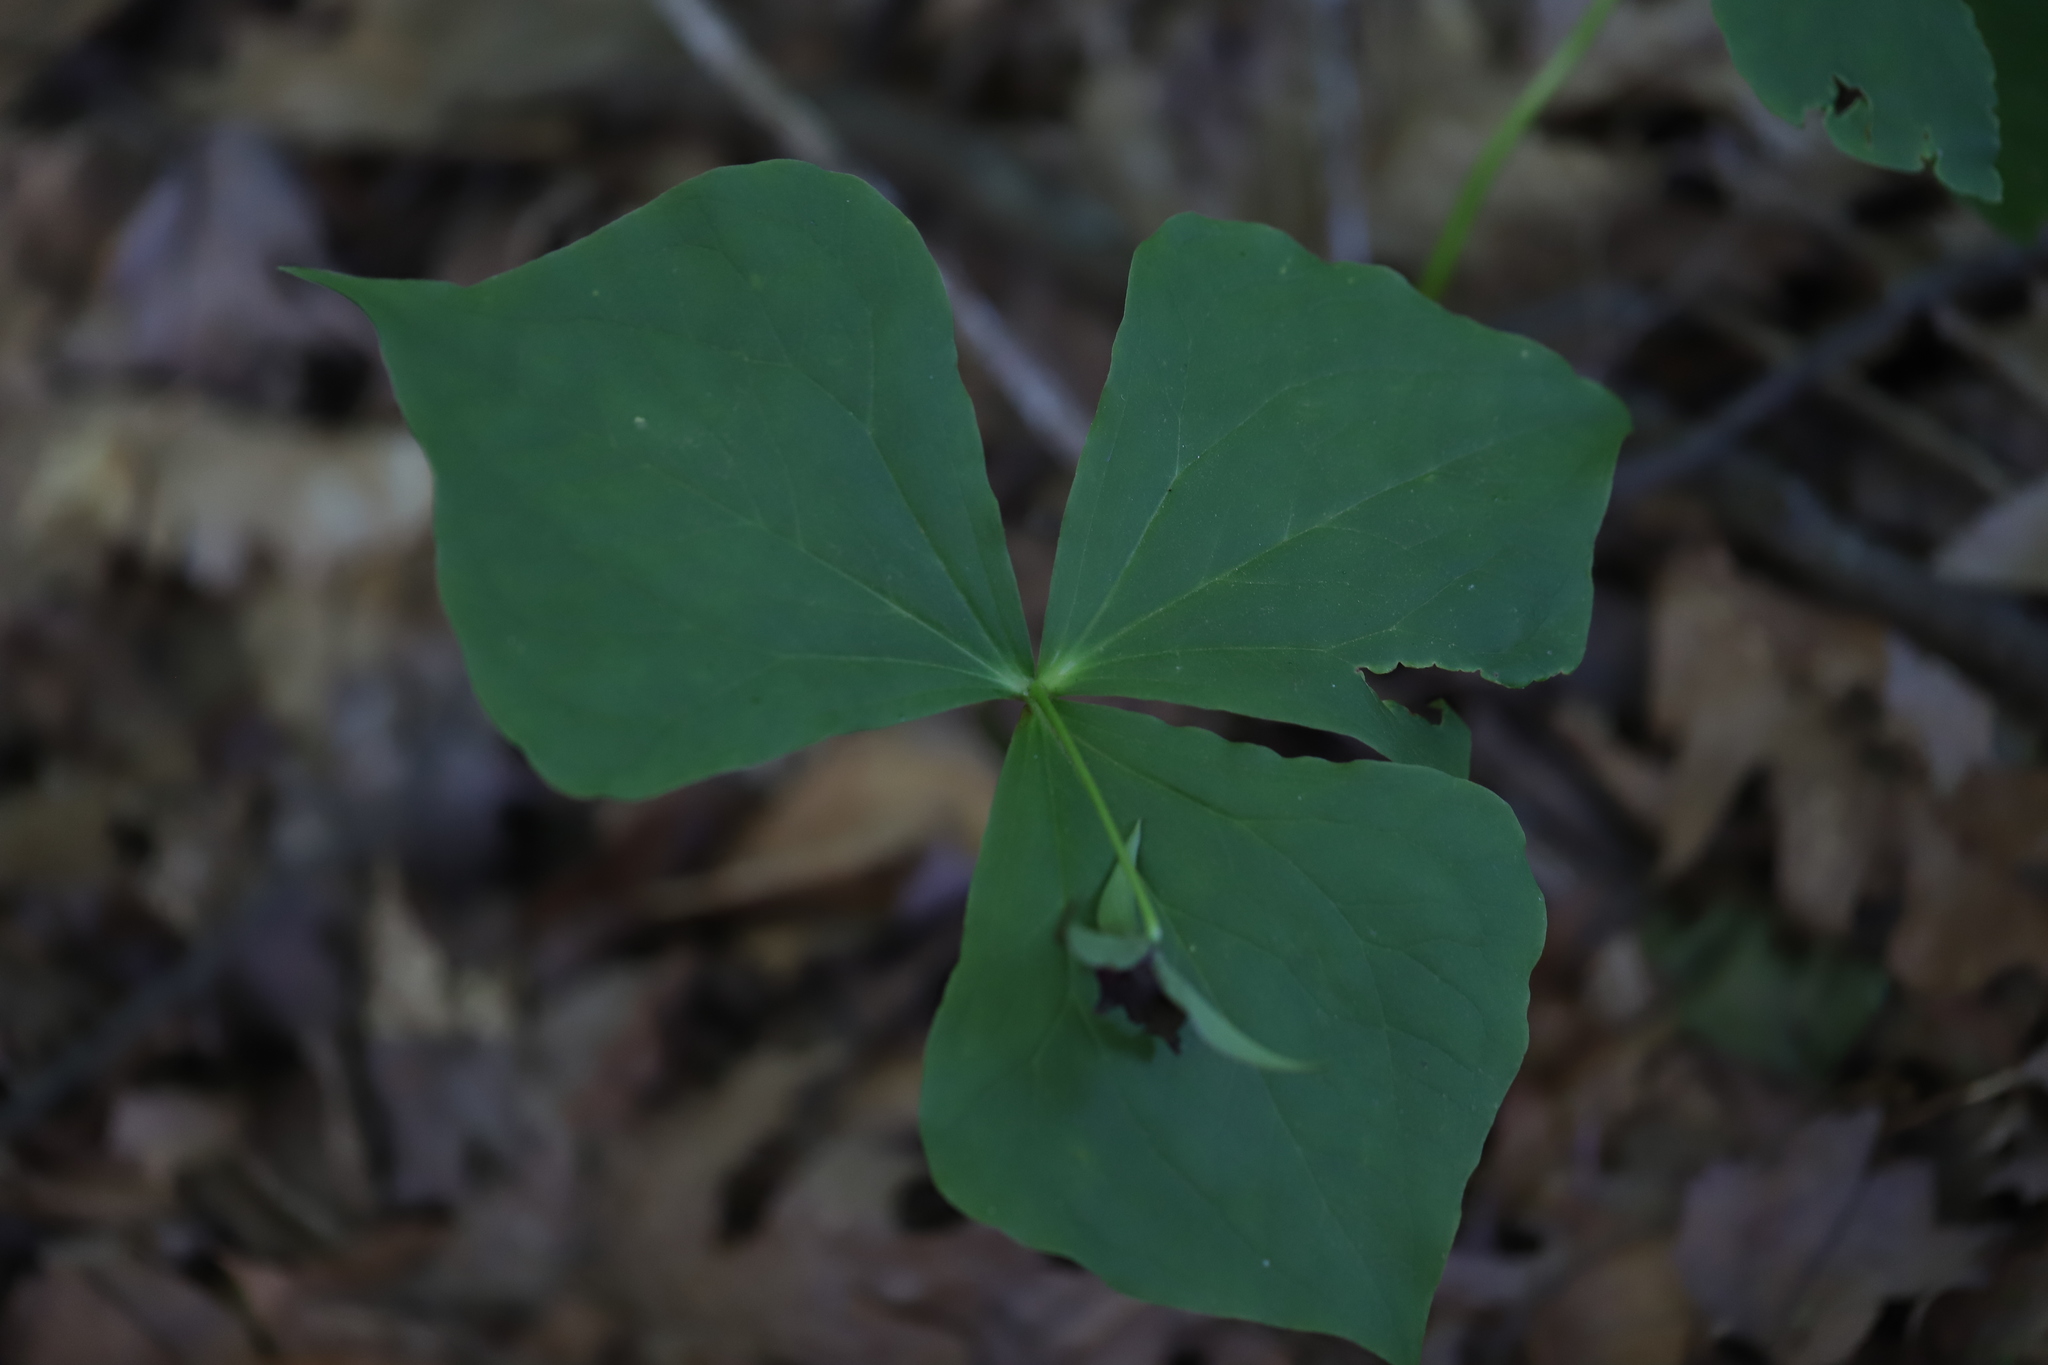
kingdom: Plantae
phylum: Tracheophyta
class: Liliopsida
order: Liliales
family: Melanthiaceae
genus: Trillium
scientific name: Trillium erectum
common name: Purple trillium
